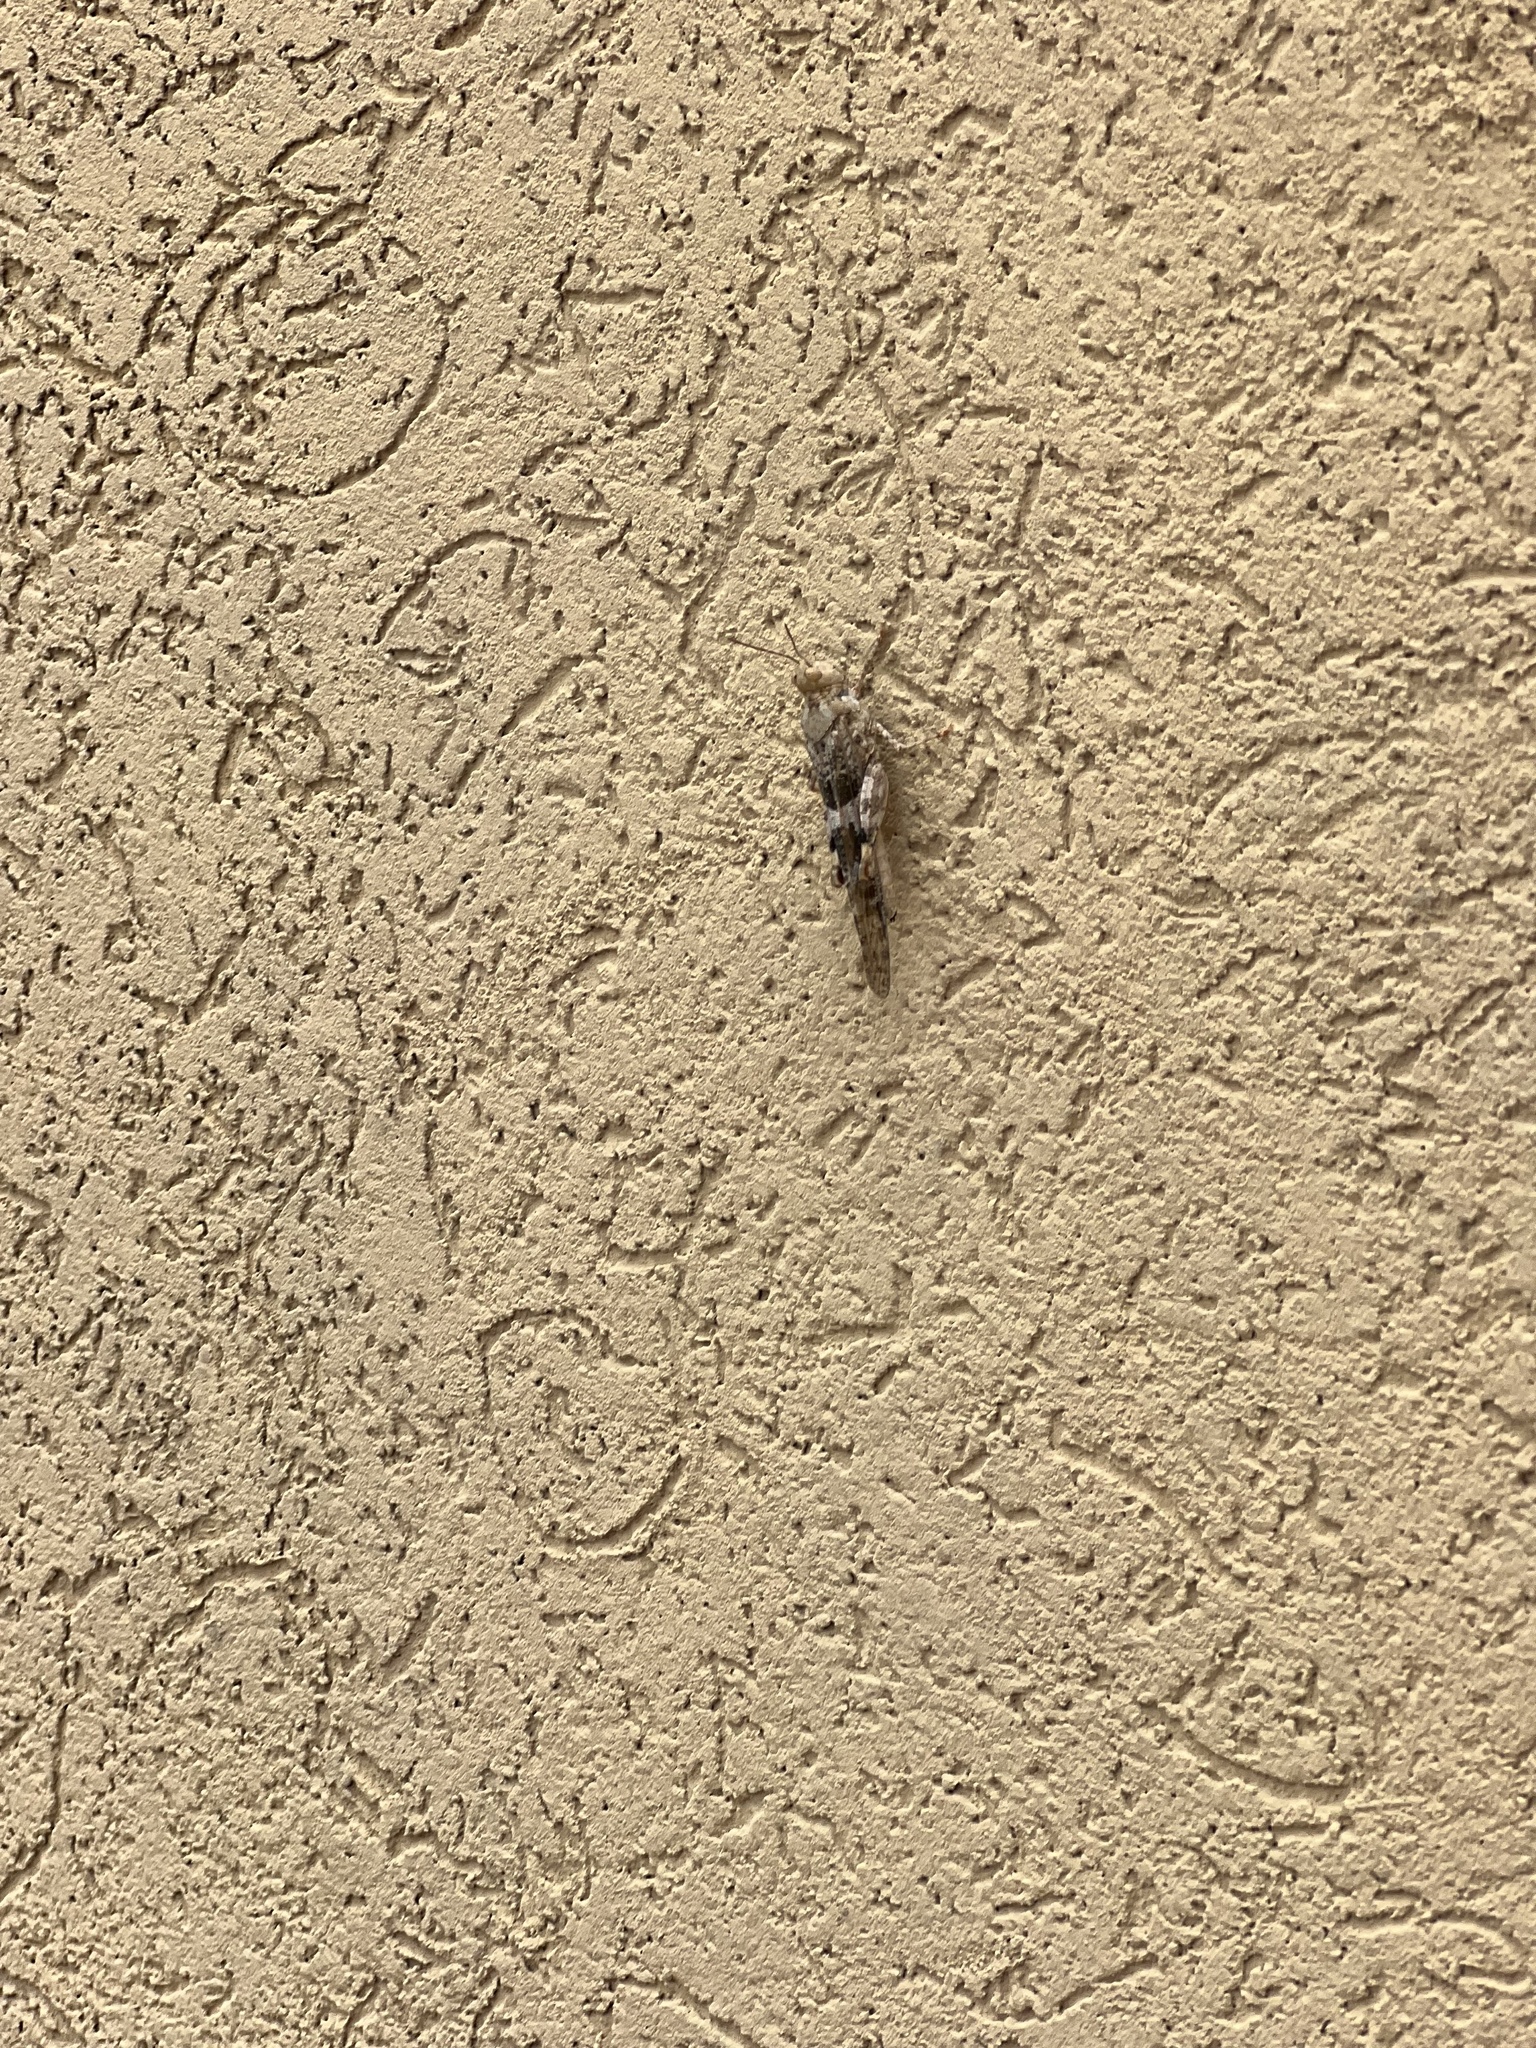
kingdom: Animalia
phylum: Arthropoda
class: Insecta
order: Orthoptera
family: Acrididae
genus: Trimerotropis
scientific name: Trimerotropis pallidipennis
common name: Pallid-winged grasshopper
